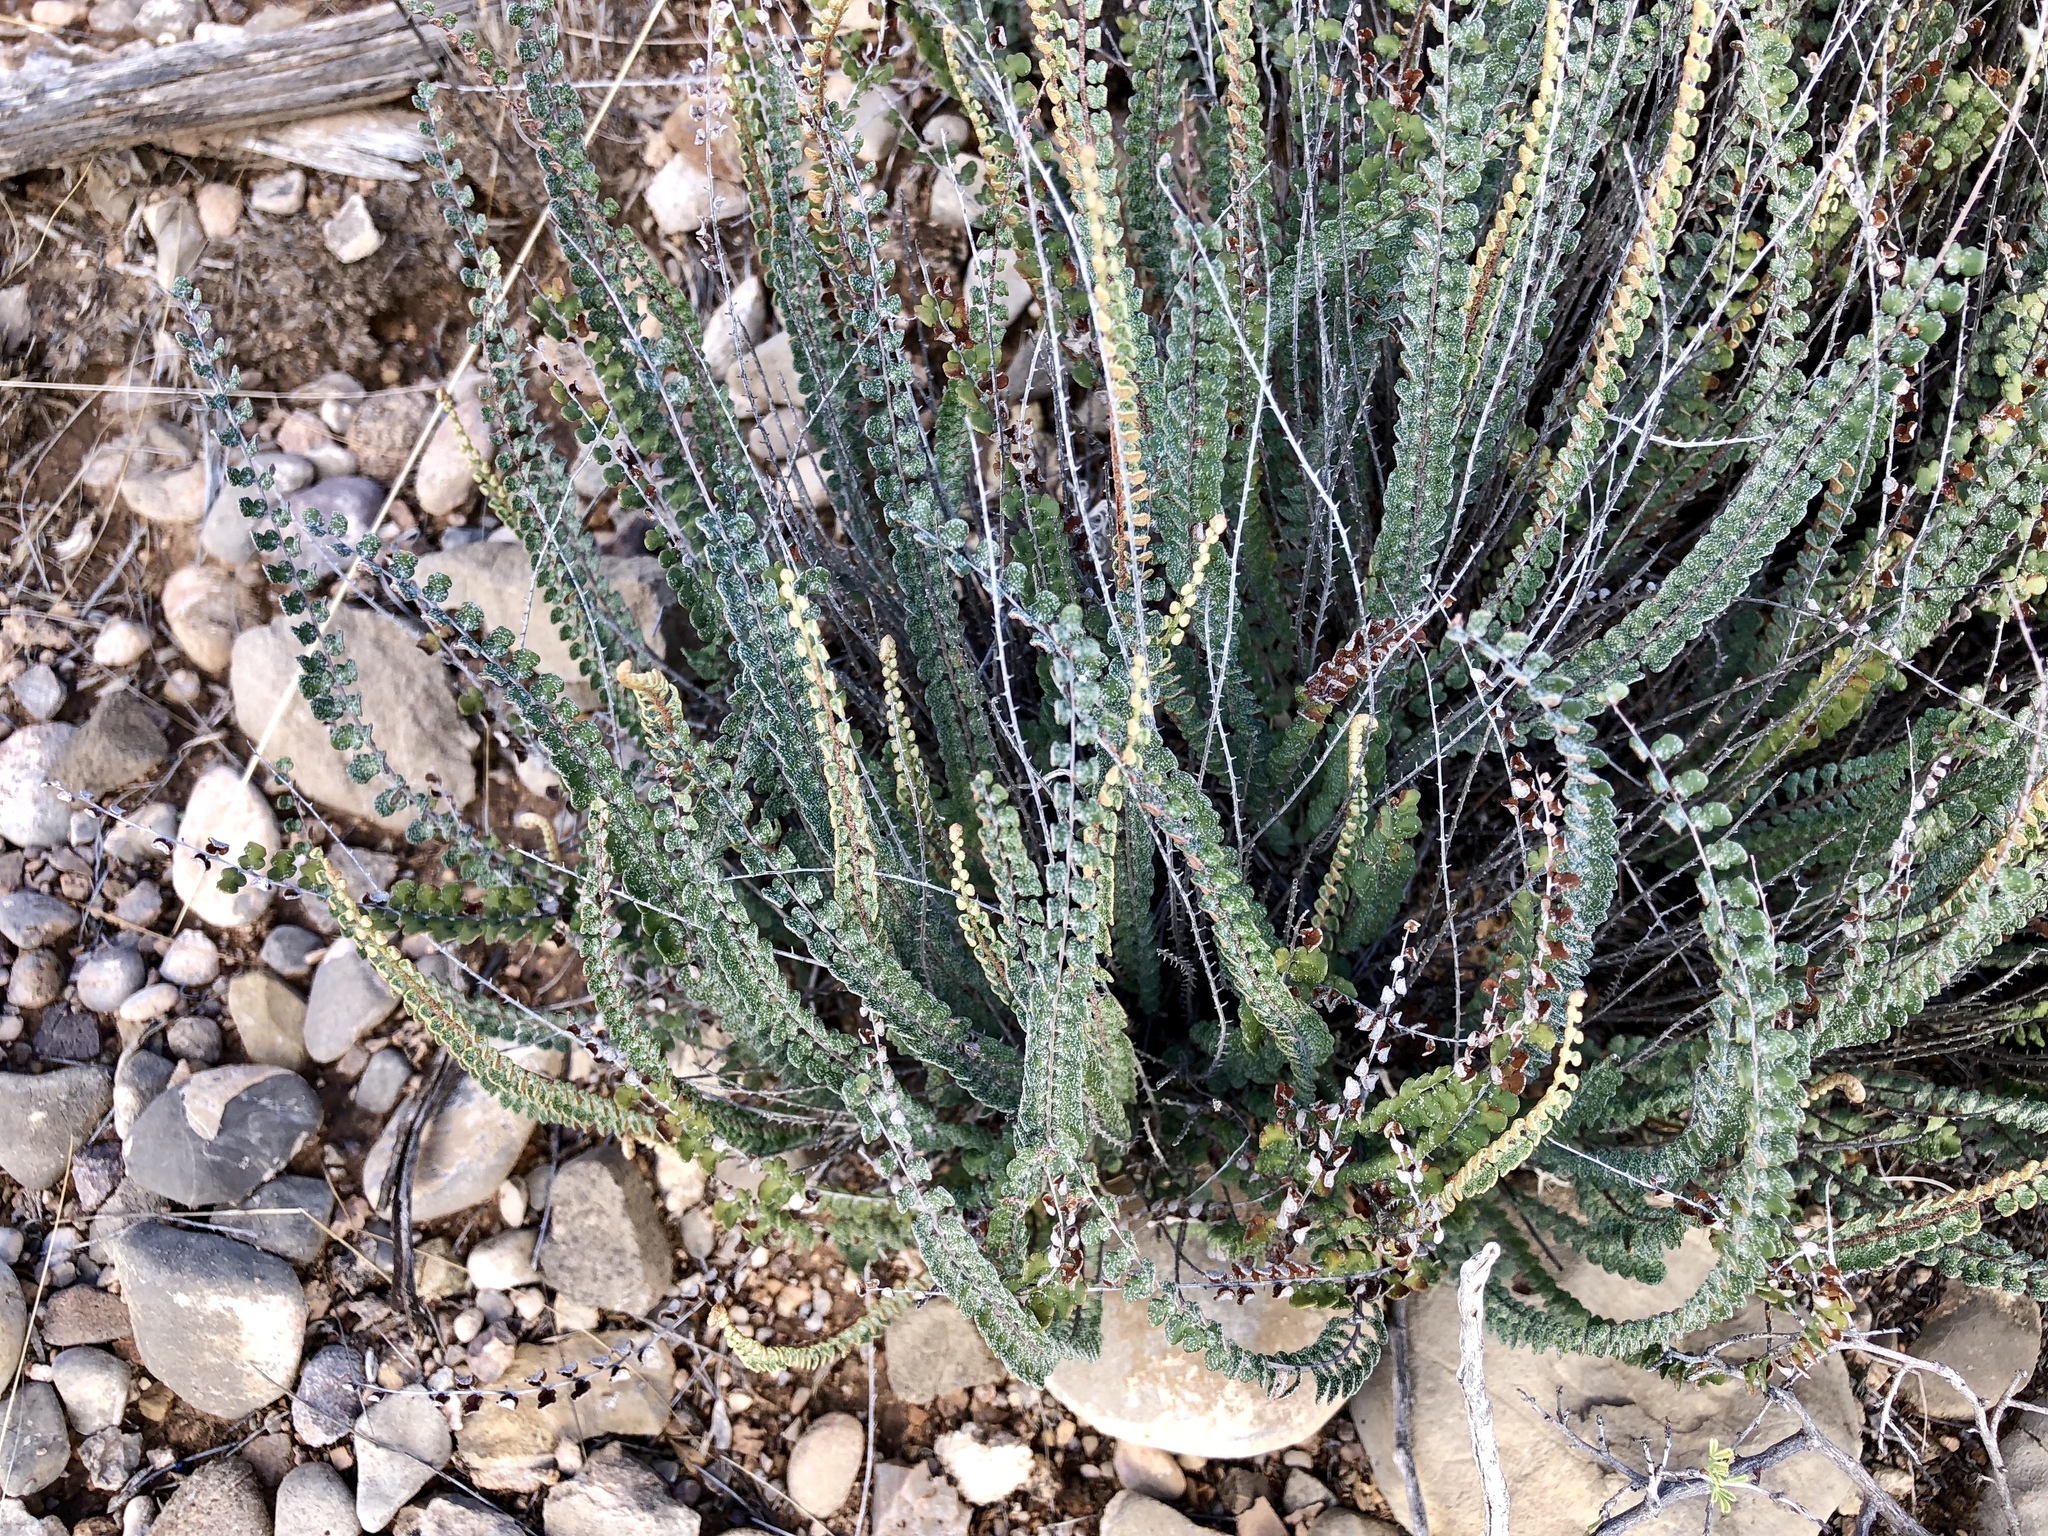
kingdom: Plantae
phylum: Tracheophyta
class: Polypodiopsida
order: Polypodiales
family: Pteridaceae
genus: Astrolepis
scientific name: Astrolepis cochisensis
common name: Scaly cloak fern
